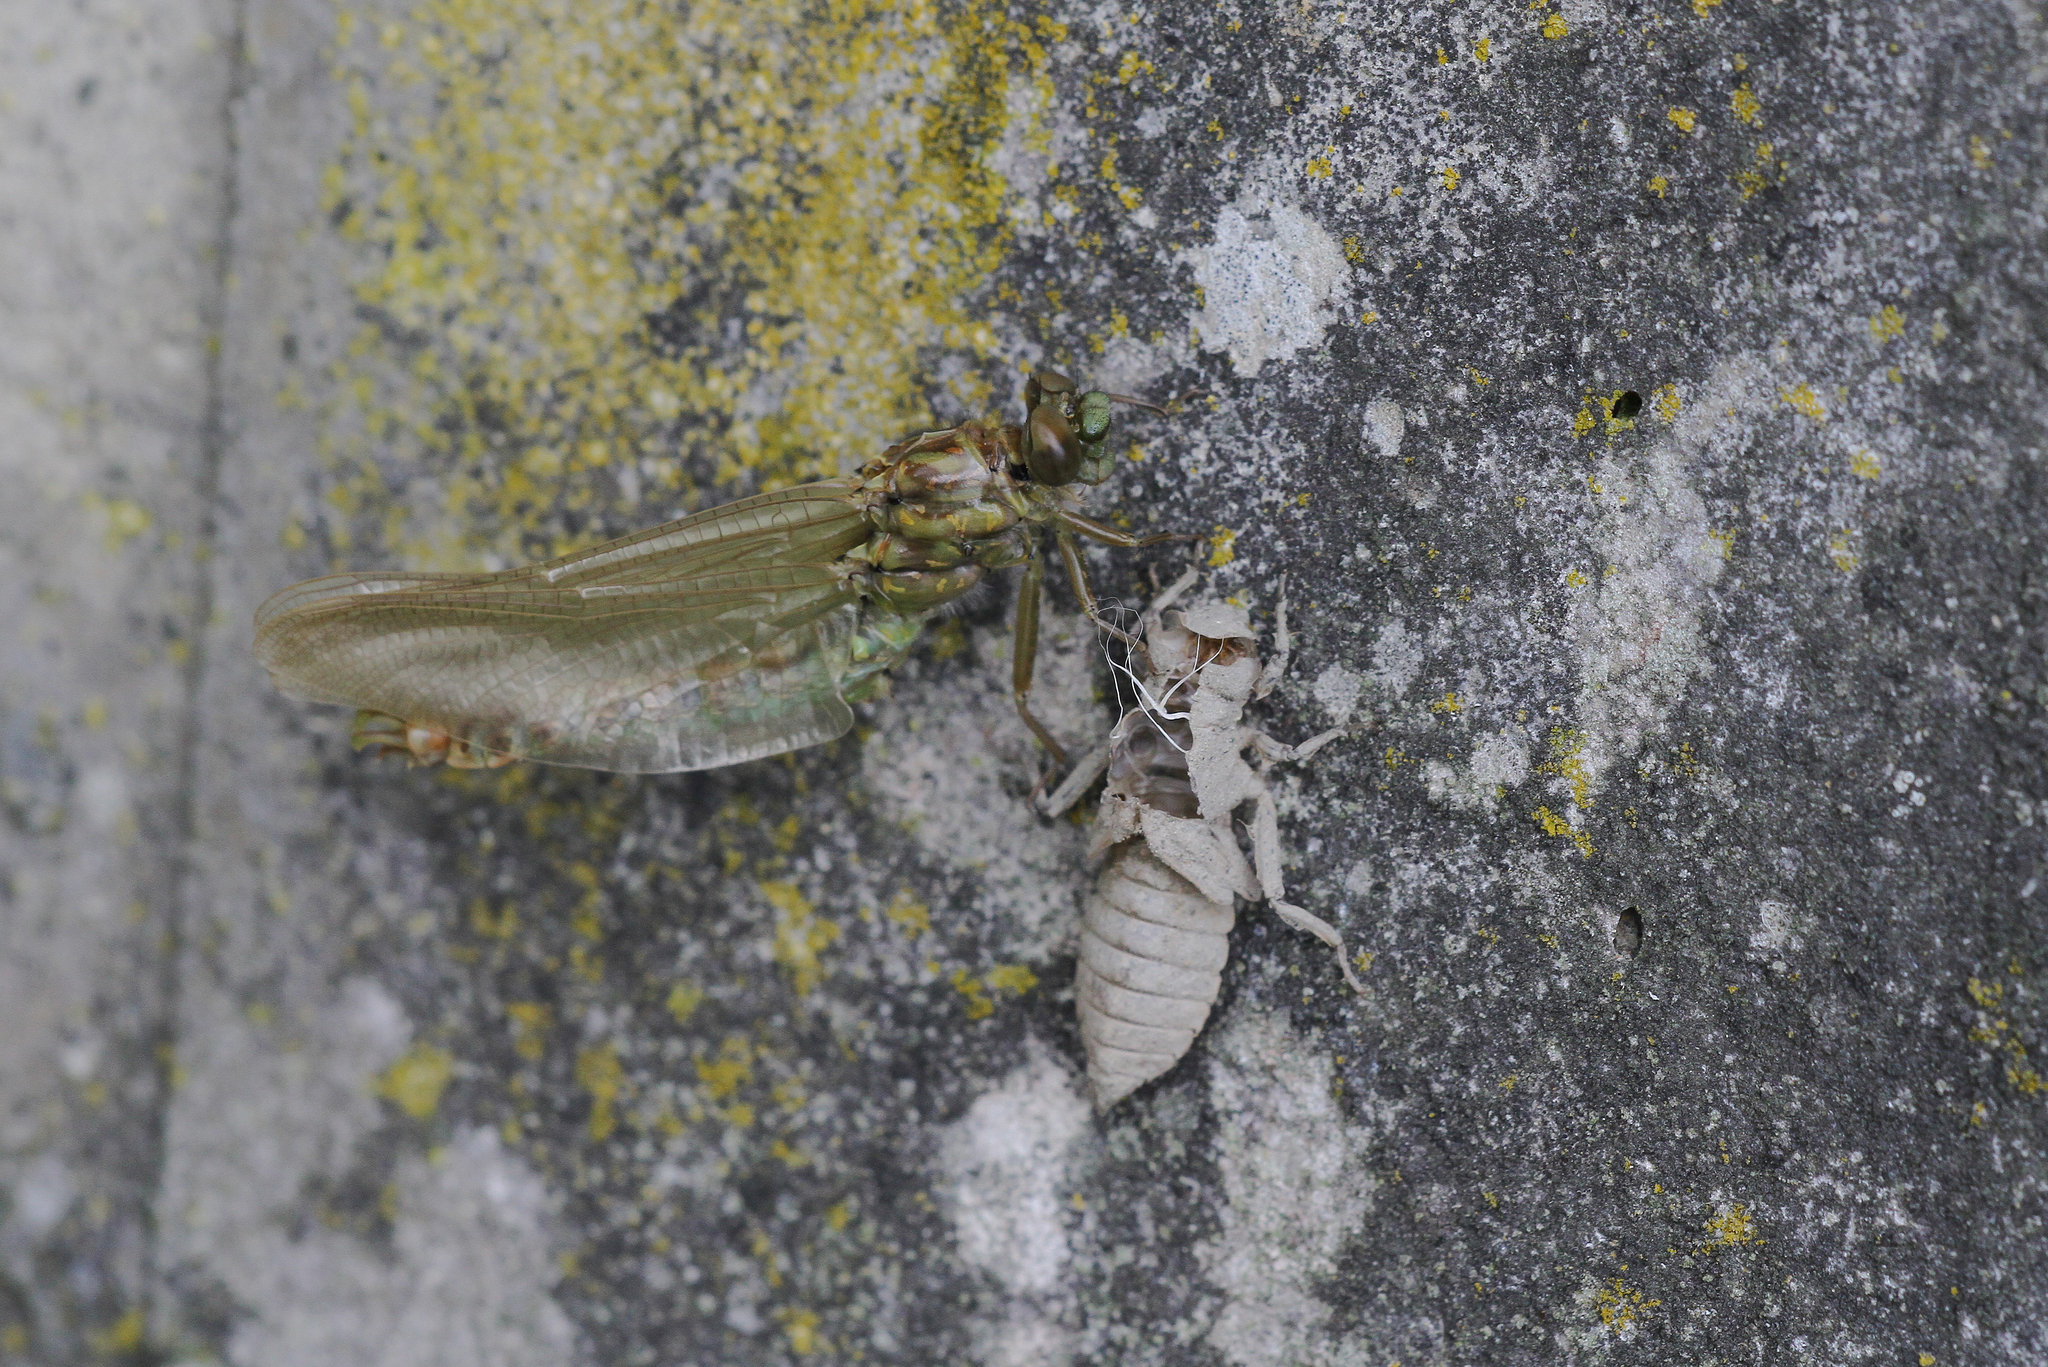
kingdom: Animalia
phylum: Arthropoda
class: Insecta
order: Odonata
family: Gomphidae
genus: Onychogomphus
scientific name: Onychogomphus forcipatus
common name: Small pincertail
